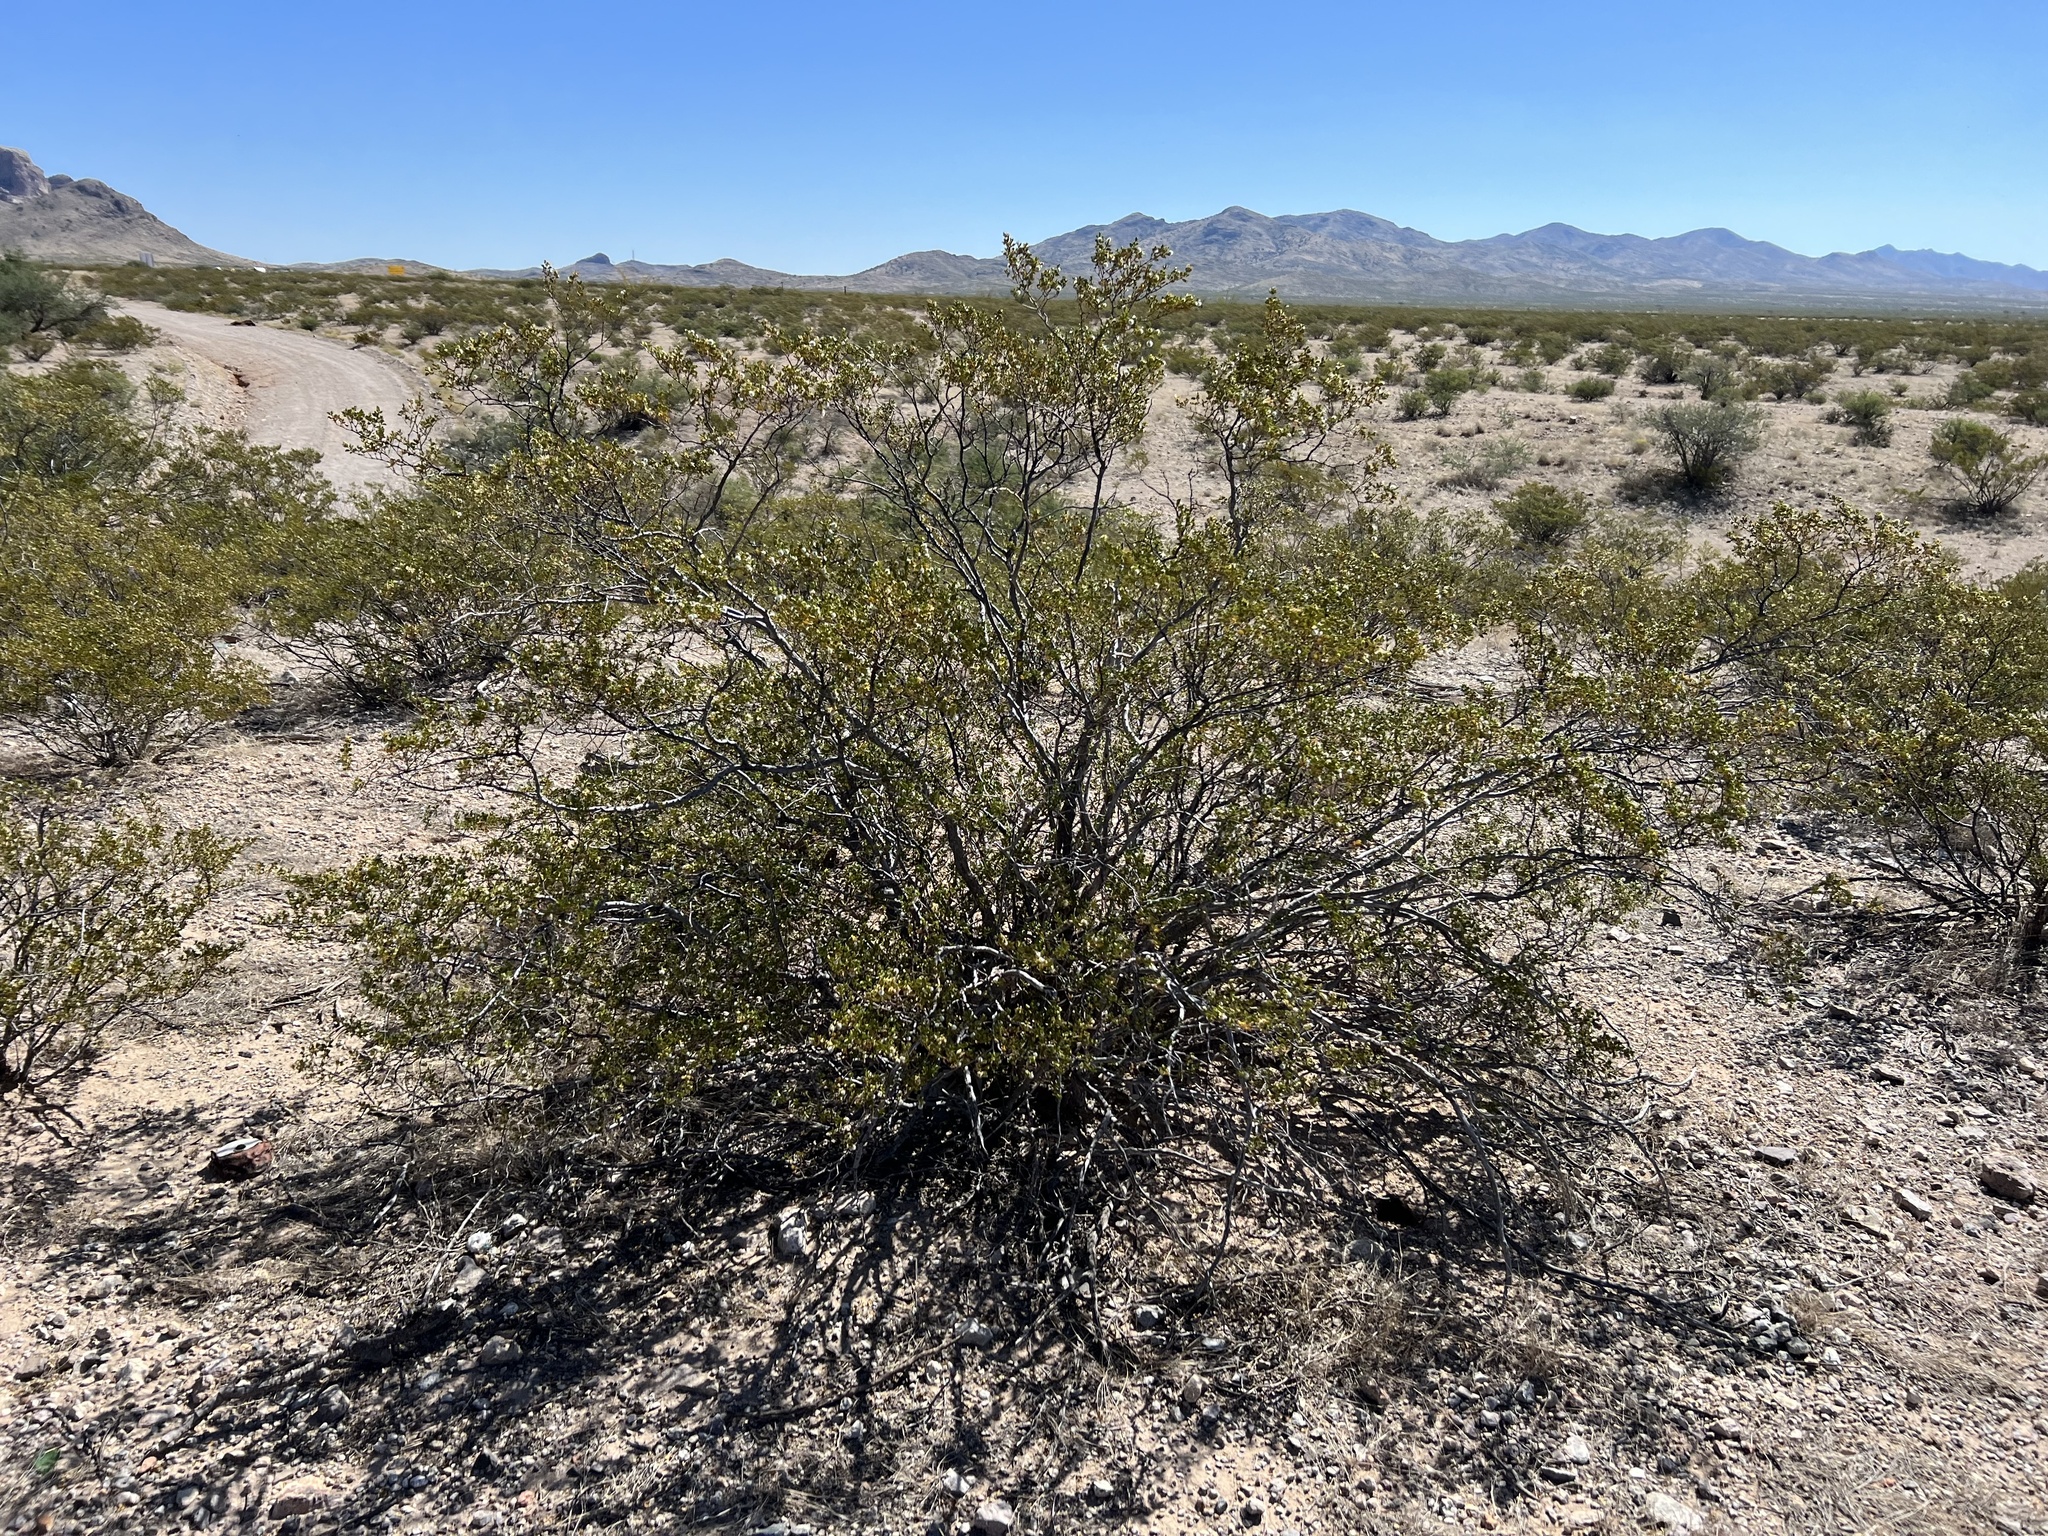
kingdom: Plantae
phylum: Tracheophyta
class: Magnoliopsida
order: Zygophyllales
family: Zygophyllaceae
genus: Larrea
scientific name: Larrea tridentata
